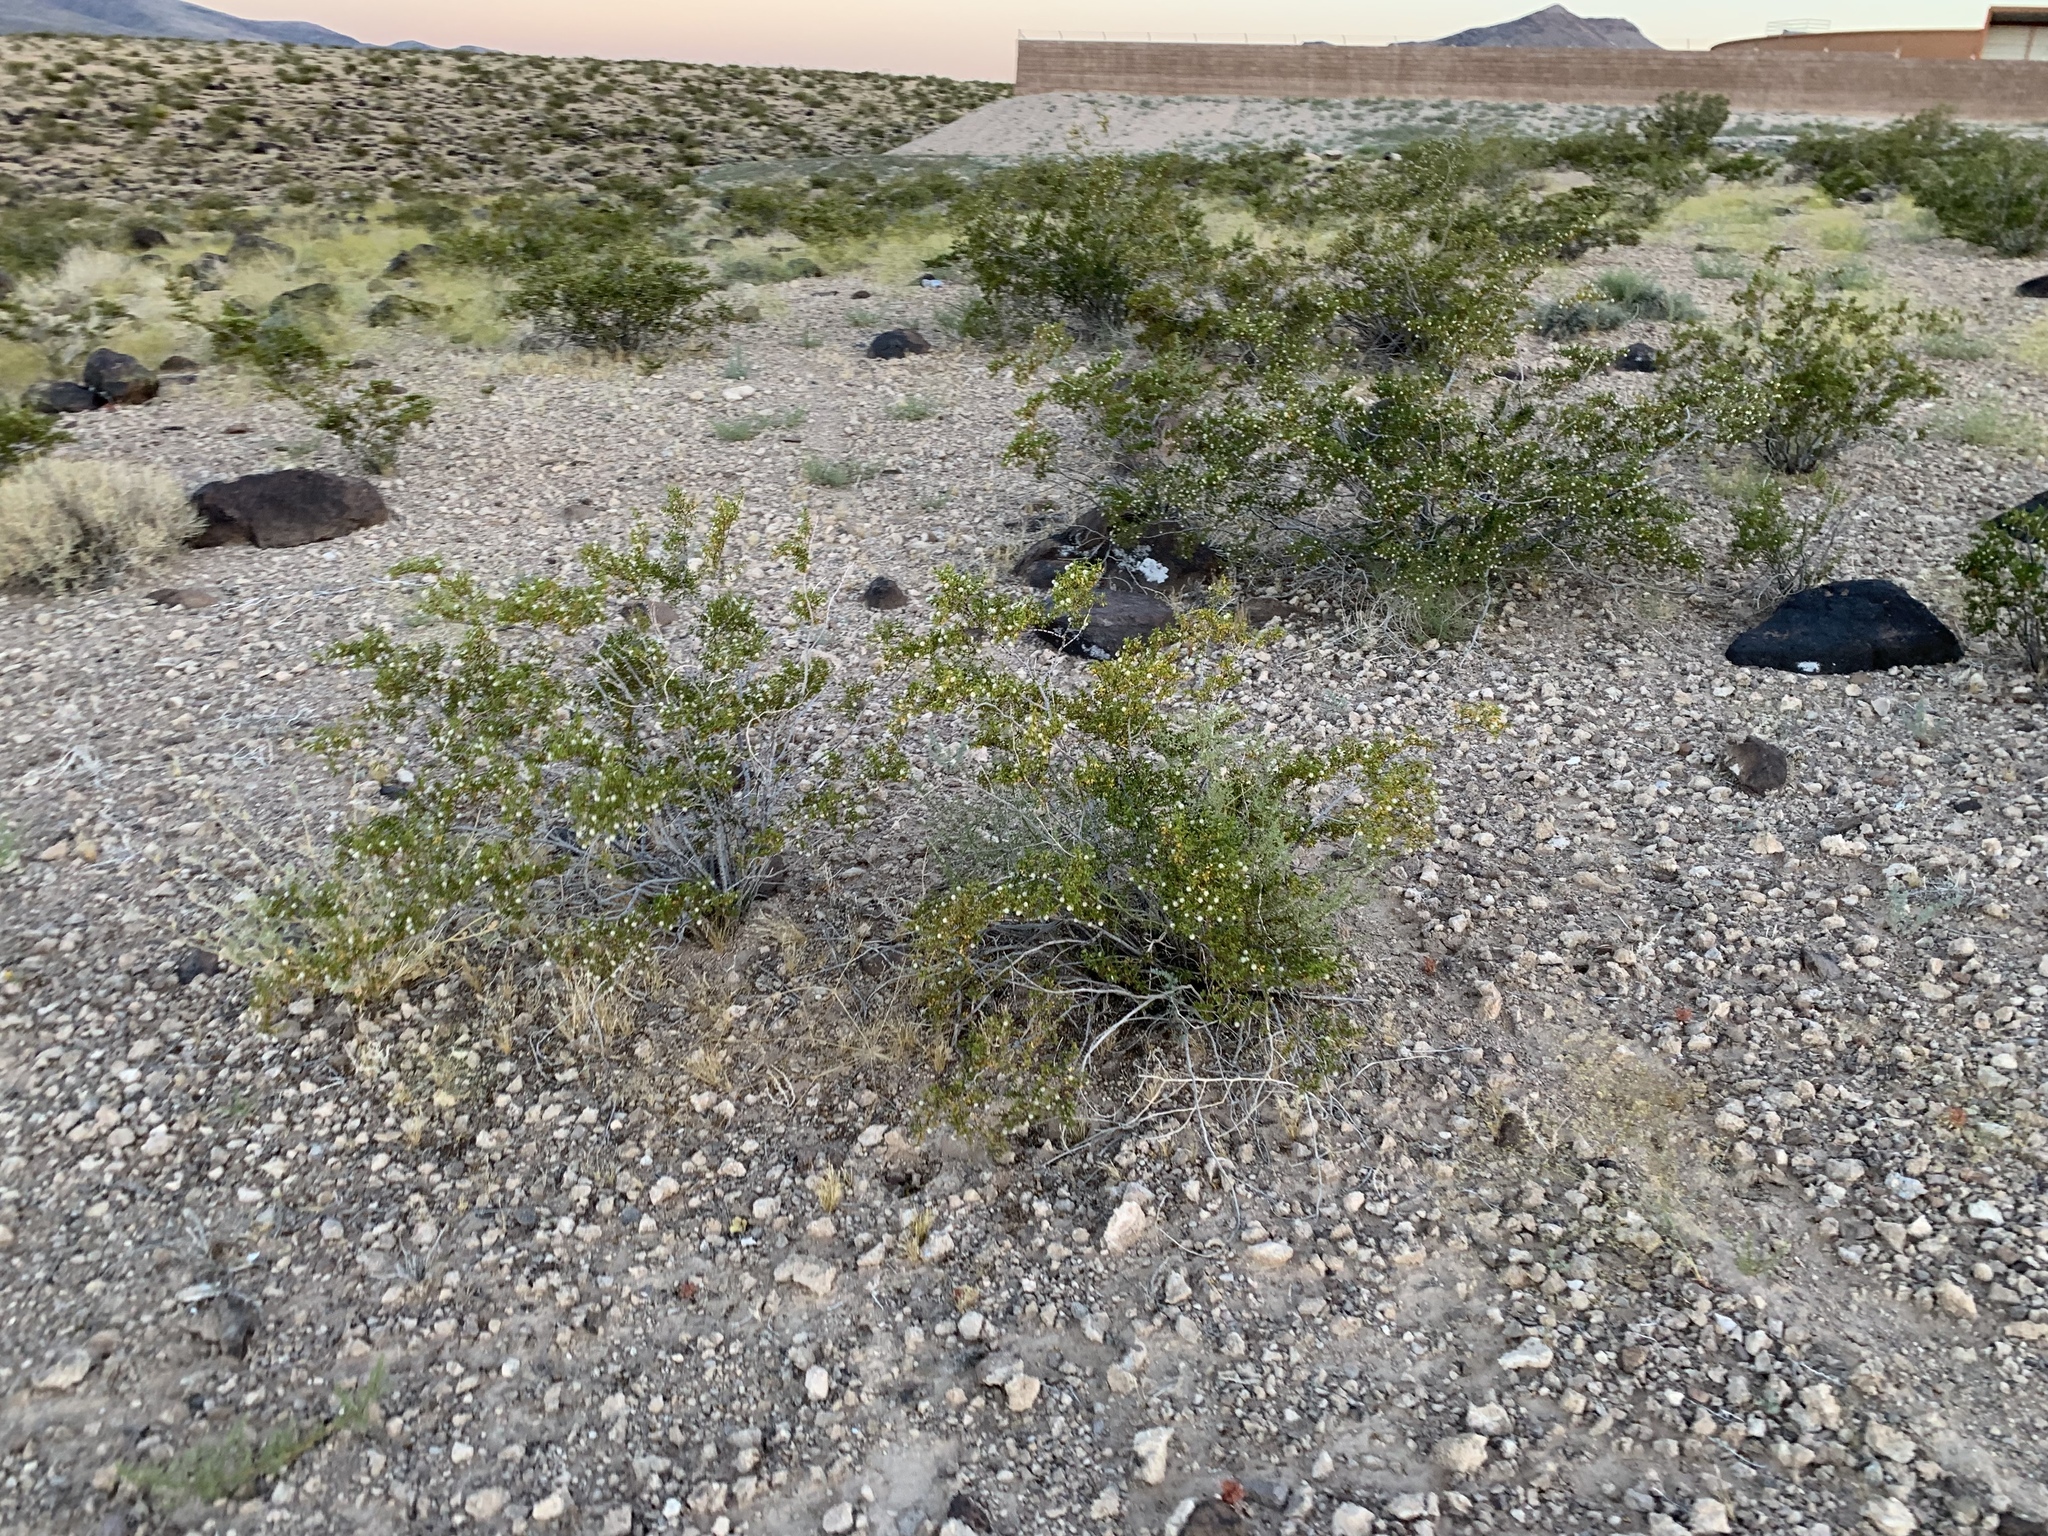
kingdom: Plantae
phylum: Tracheophyta
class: Magnoliopsida
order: Zygophyllales
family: Zygophyllaceae
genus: Larrea
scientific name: Larrea tridentata
